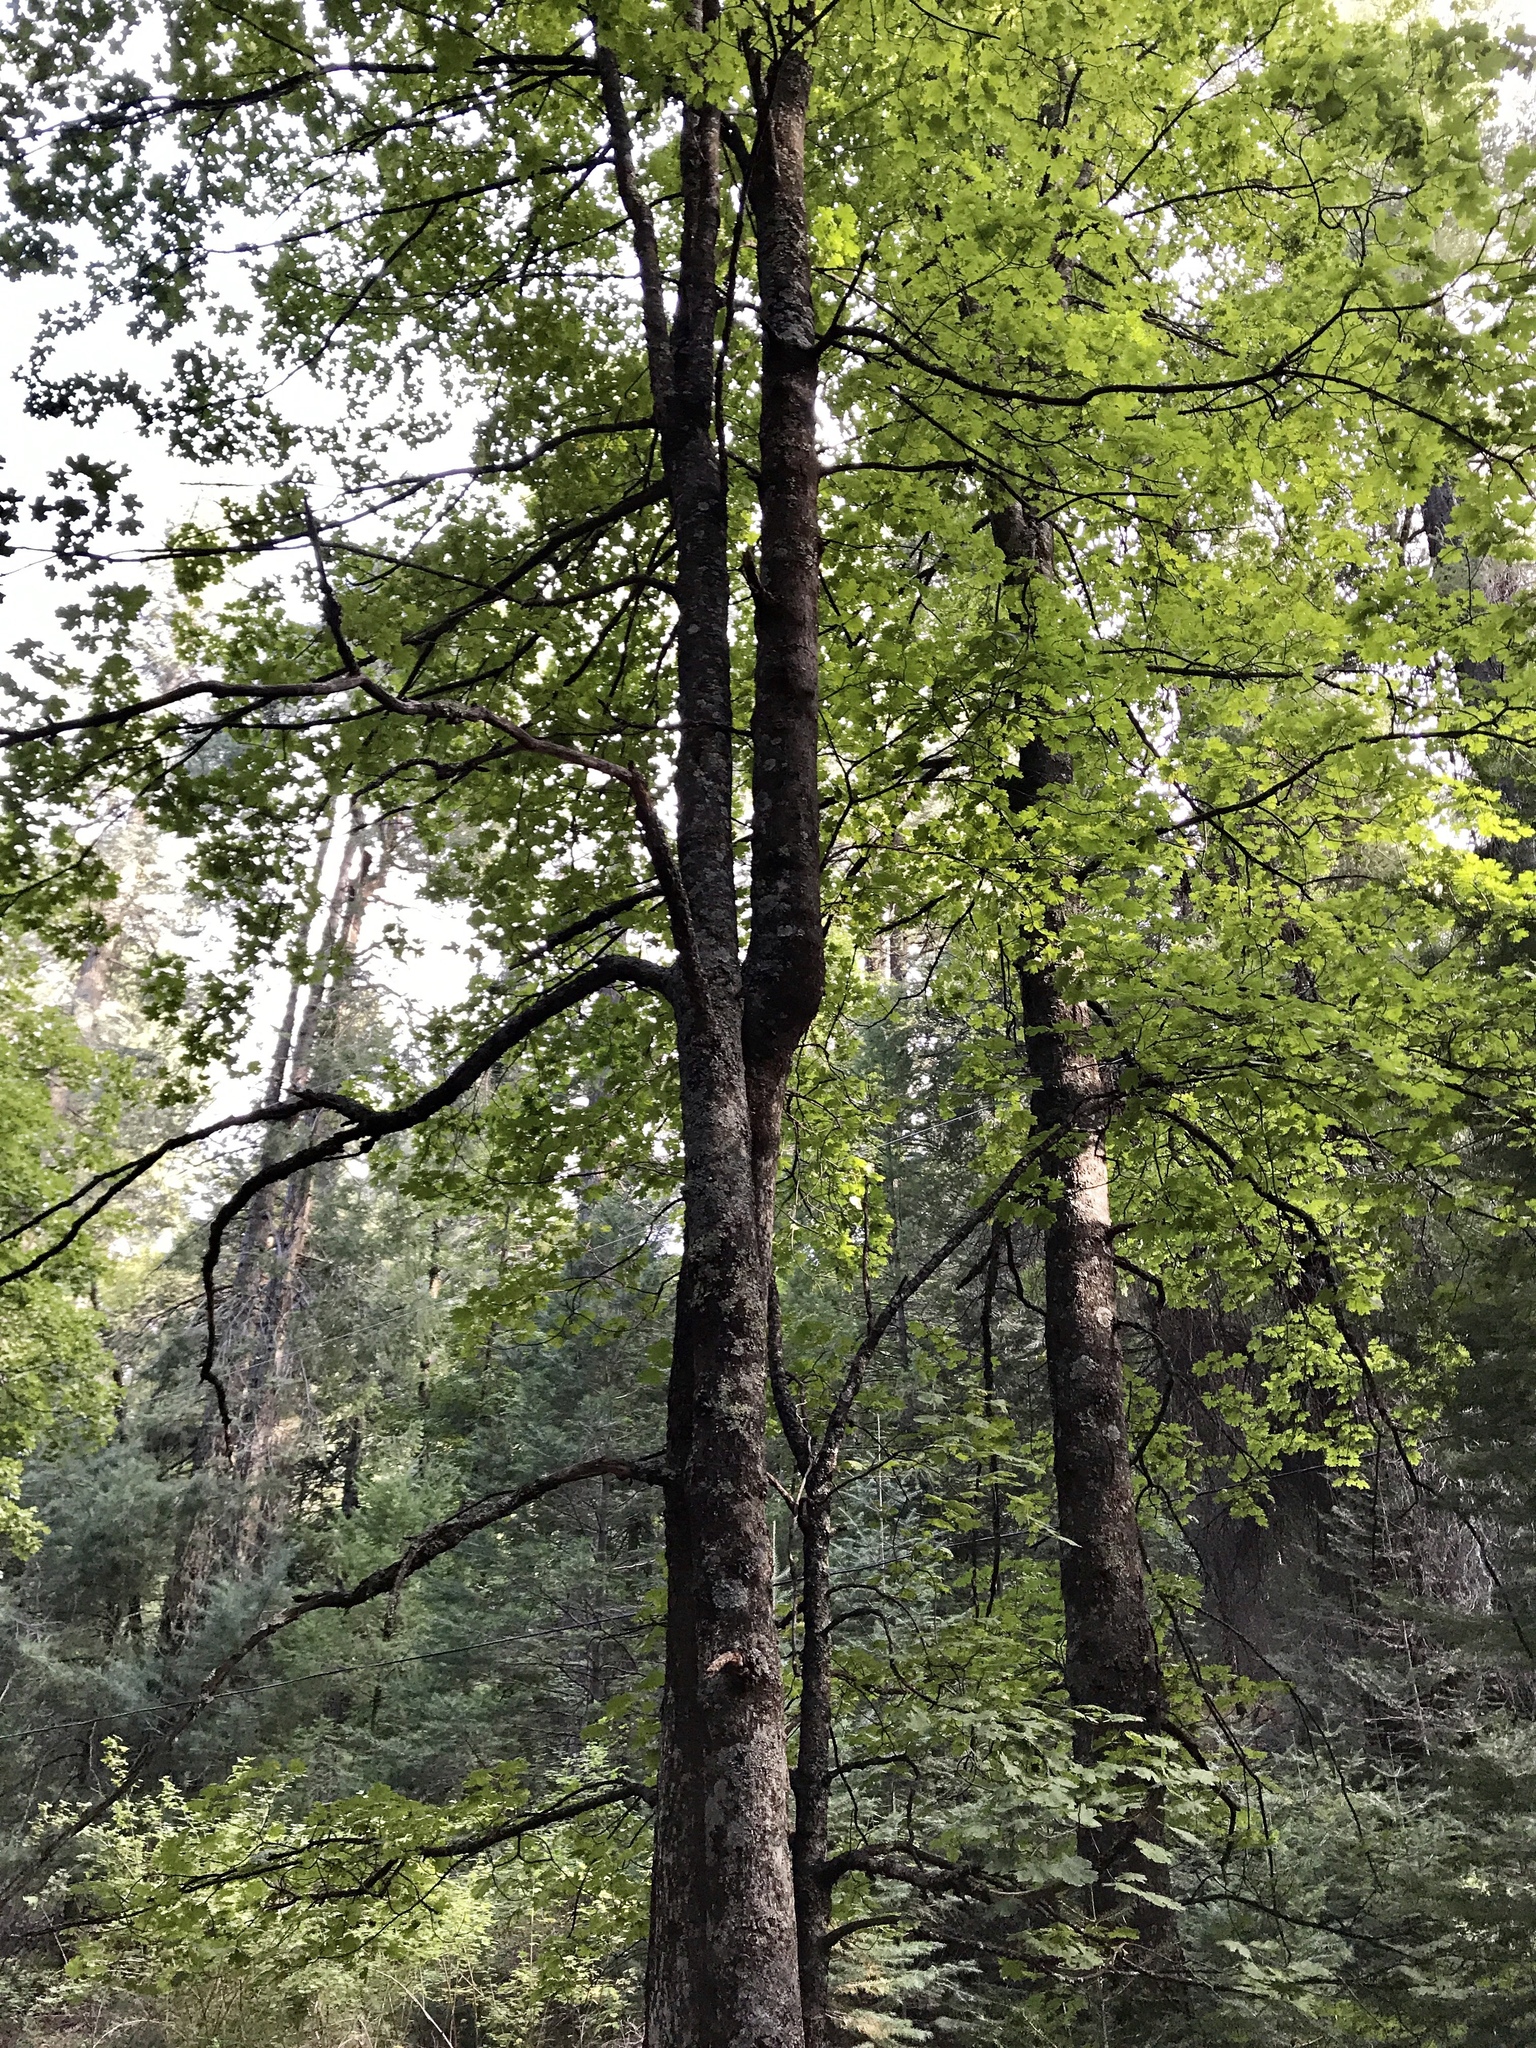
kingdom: Plantae
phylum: Tracheophyta
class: Magnoliopsida
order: Sapindales
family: Sapindaceae
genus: Acer
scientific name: Acer grandidentatum
